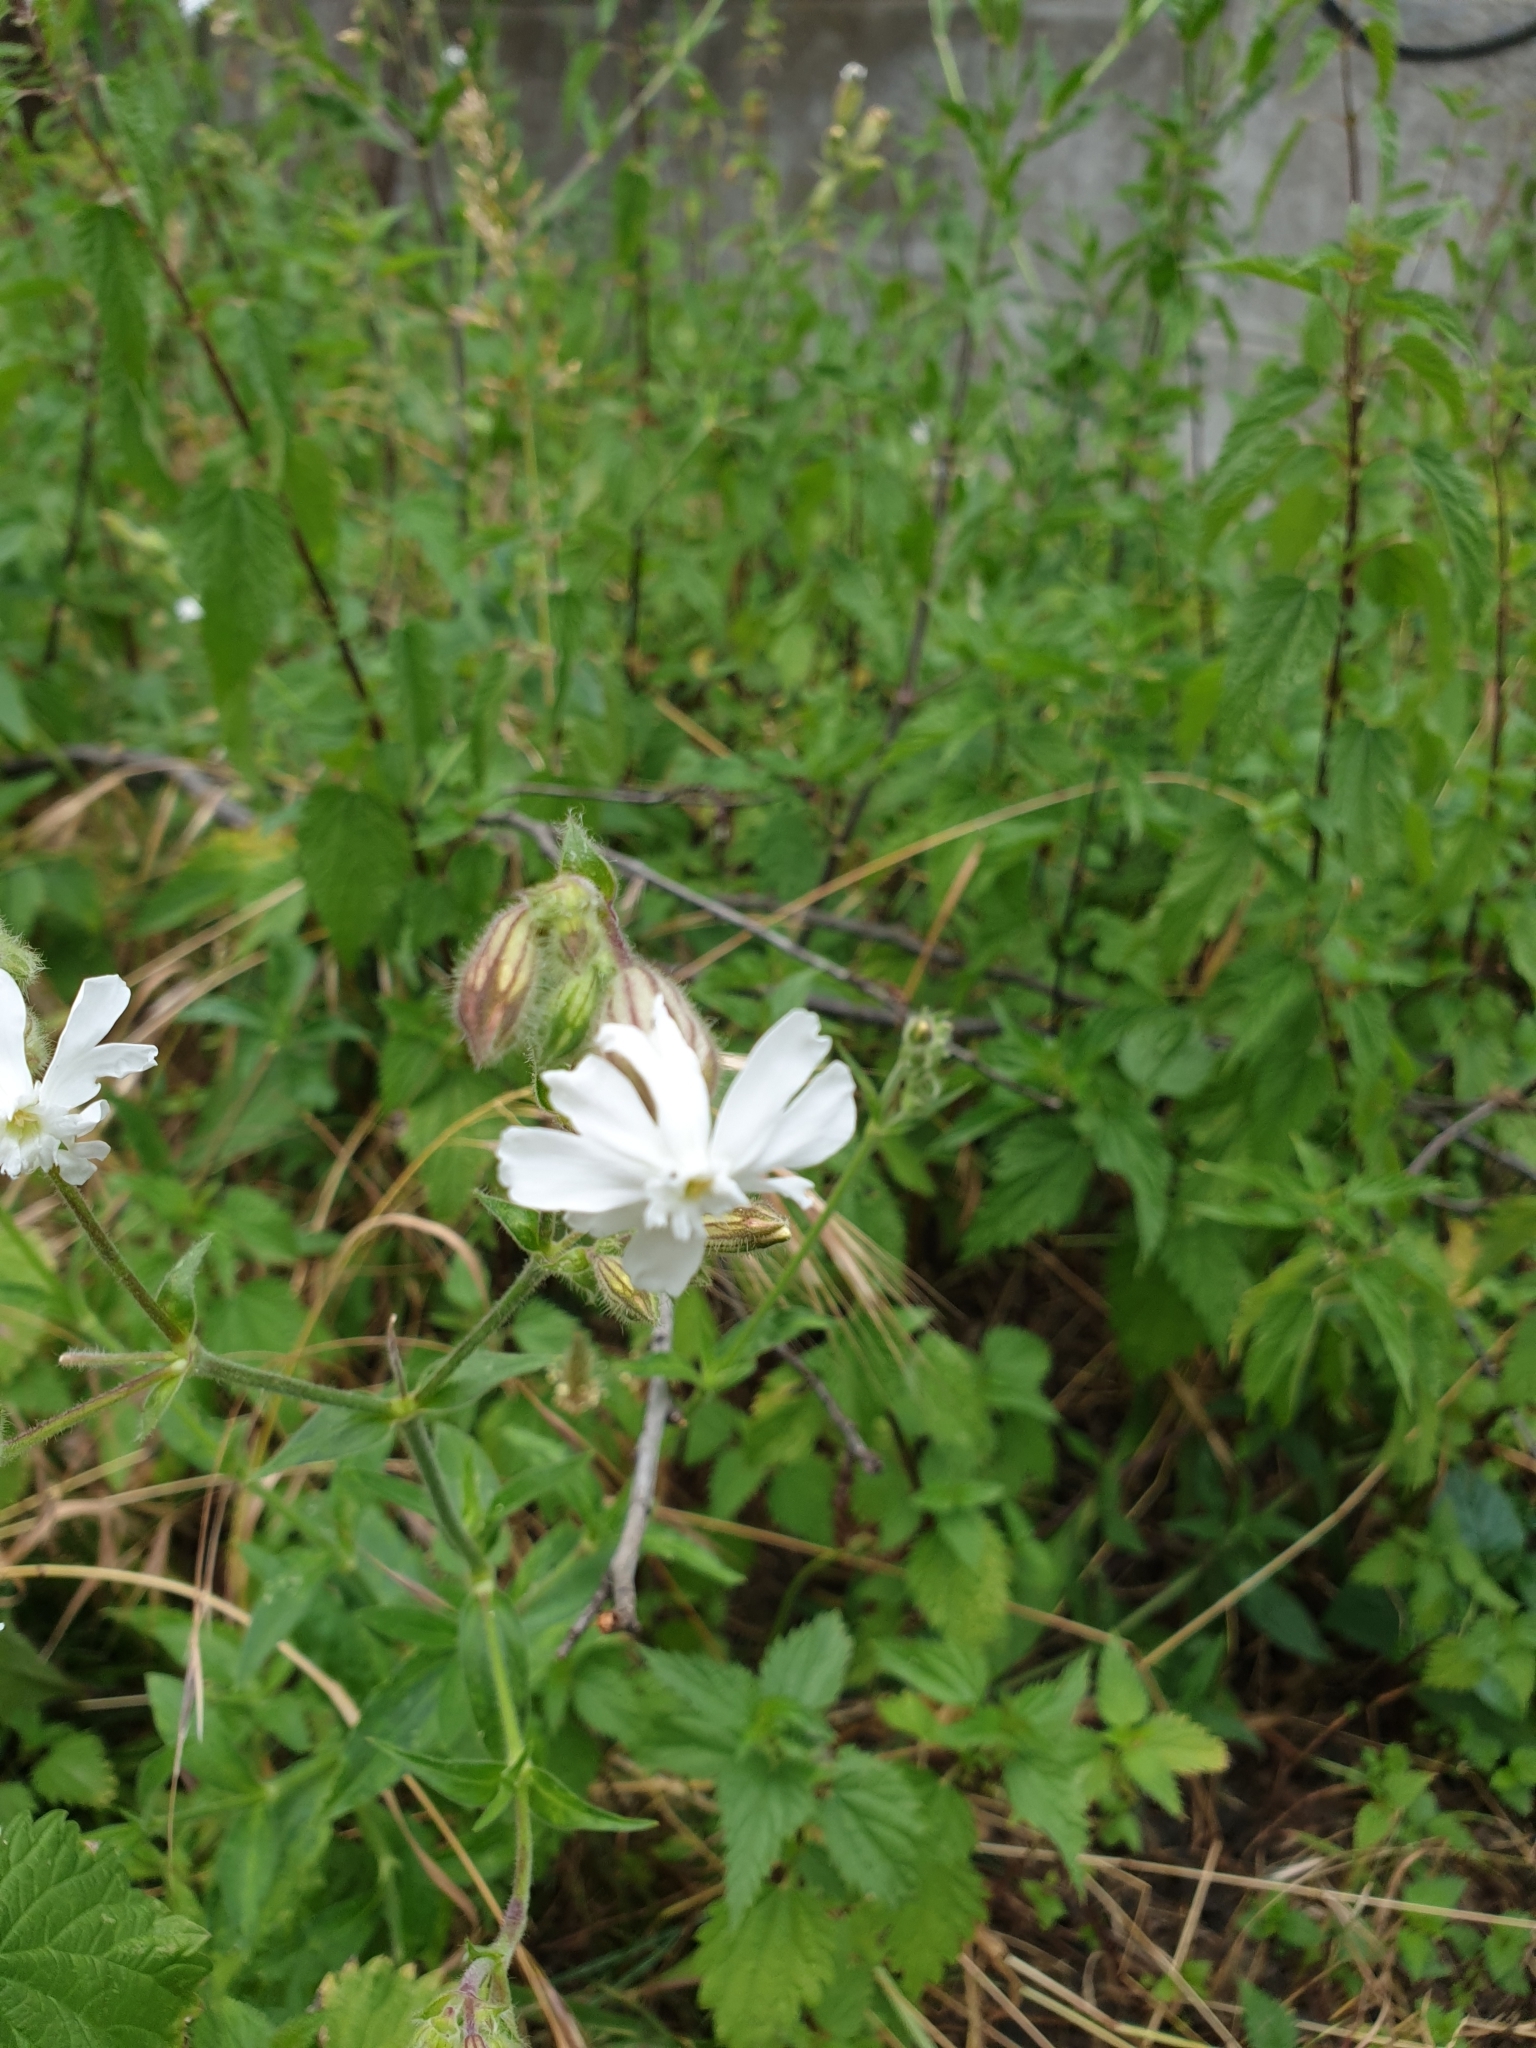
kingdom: Plantae
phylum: Tracheophyta
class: Magnoliopsida
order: Caryophyllales
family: Caryophyllaceae
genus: Silene
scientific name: Silene latifolia
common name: White campion
